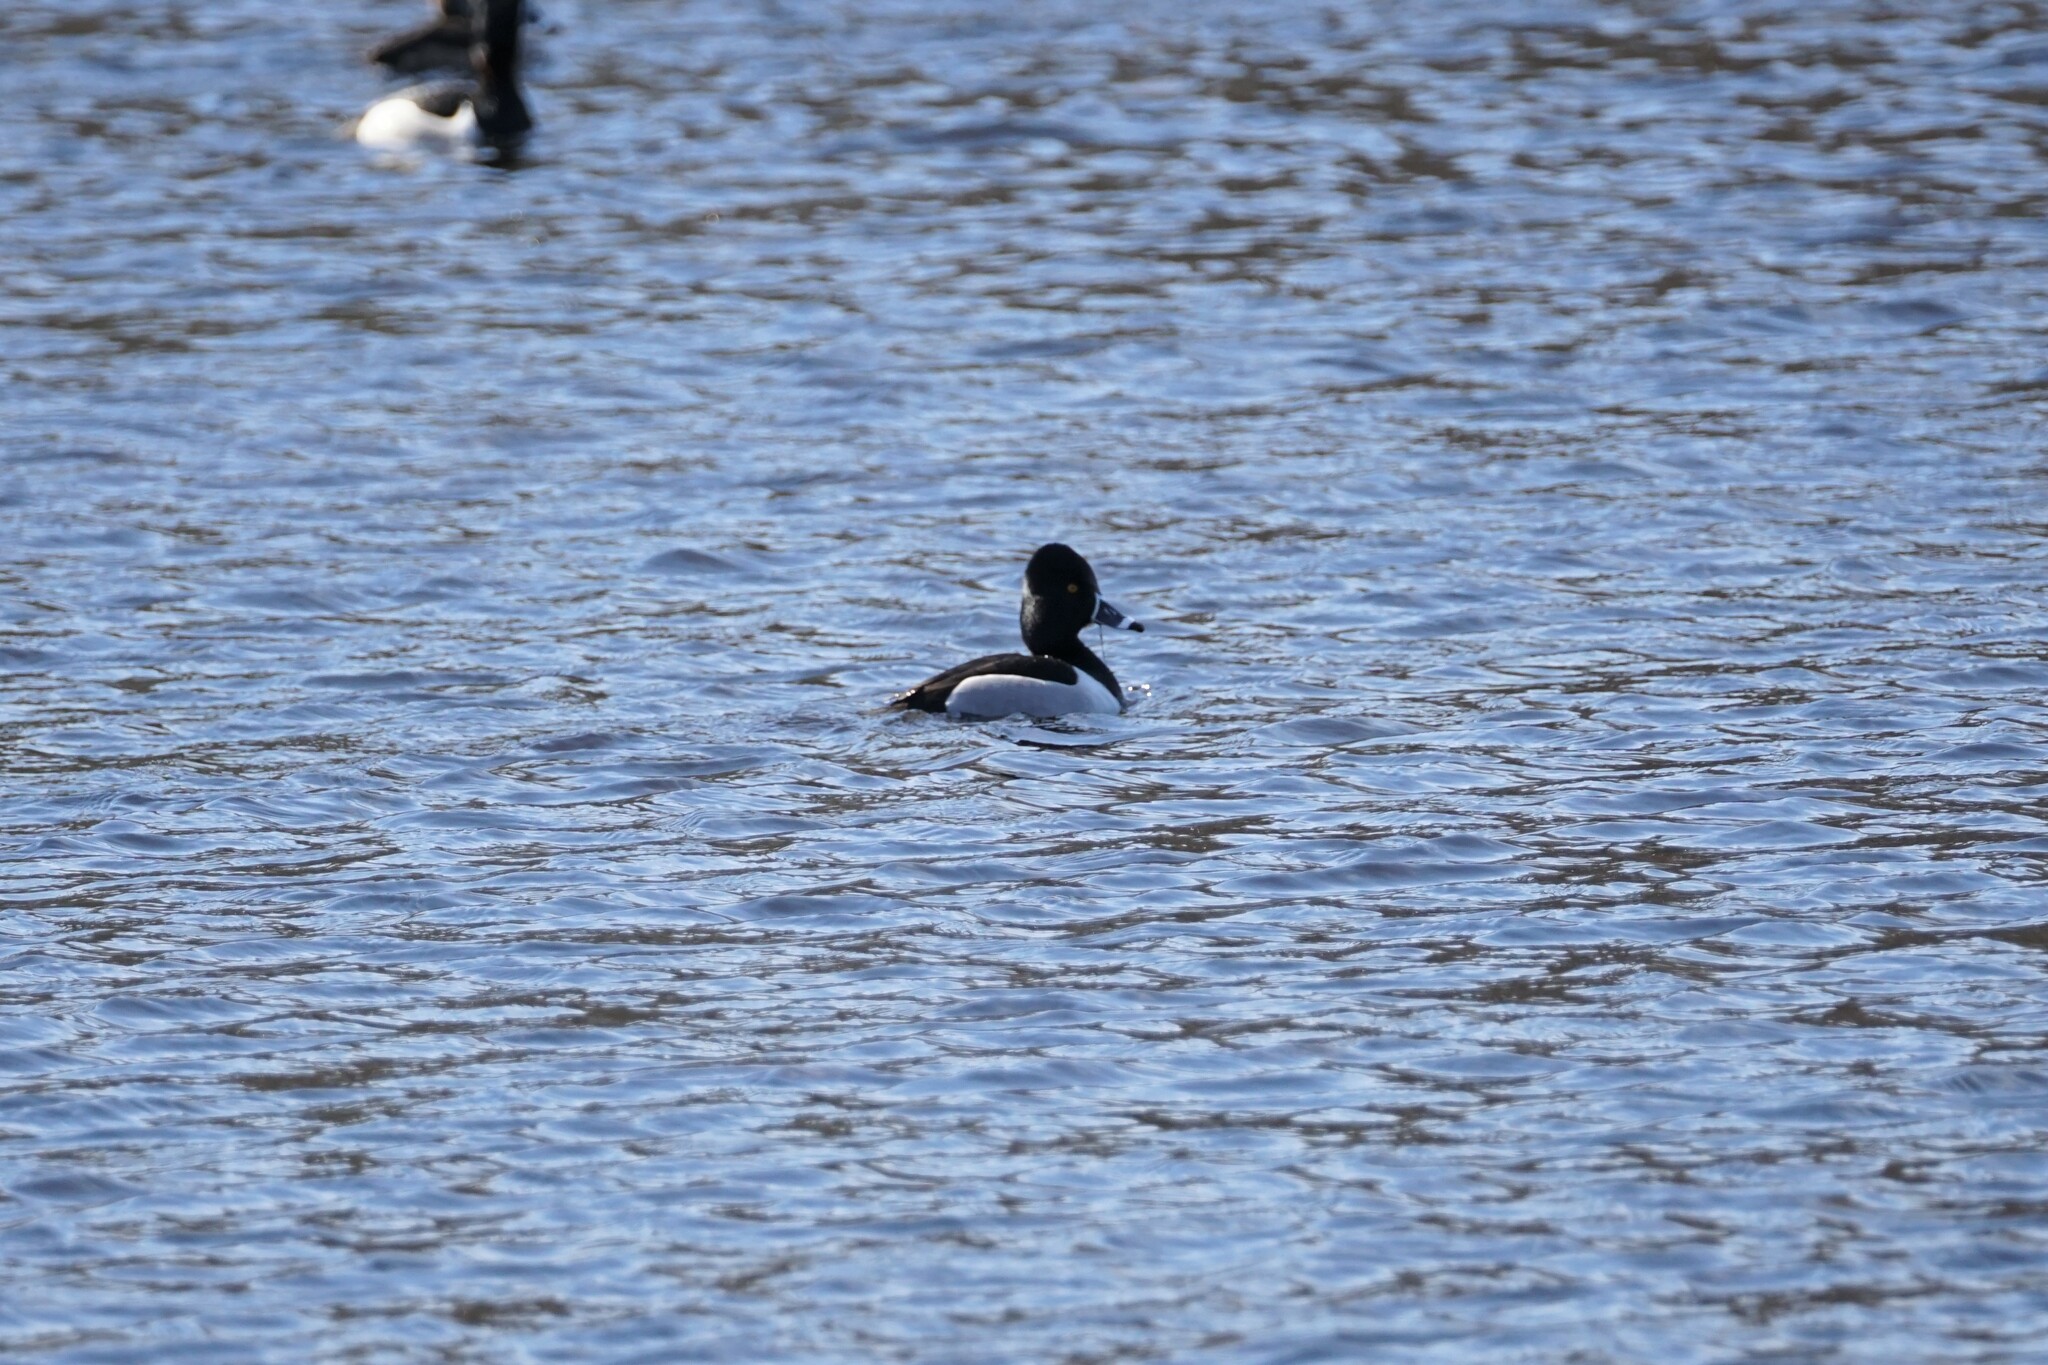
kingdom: Animalia
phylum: Chordata
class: Aves
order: Anseriformes
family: Anatidae
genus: Aythya
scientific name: Aythya collaris
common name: Ring-necked duck
